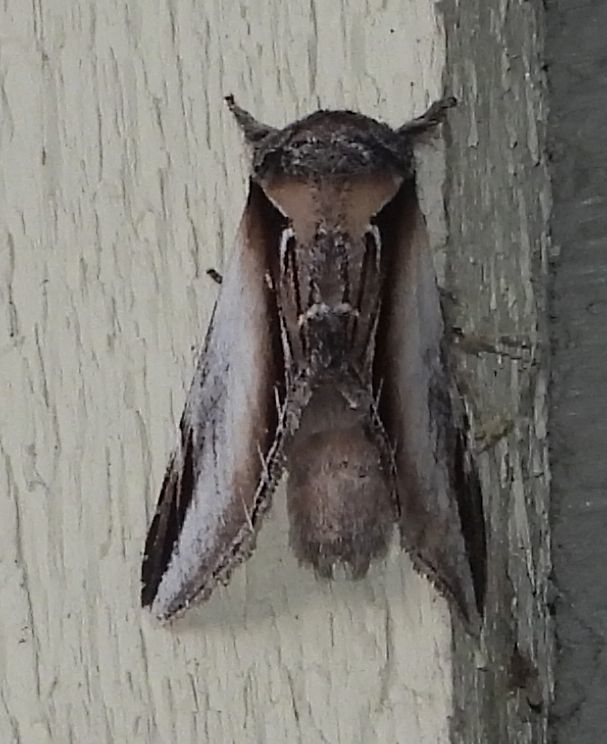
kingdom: Animalia
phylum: Arthropoda
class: Insecta
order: Lepidoptera
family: Notodontidae
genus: Pheosia
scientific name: Pheosia rimosa
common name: Black-rimmed prominent
